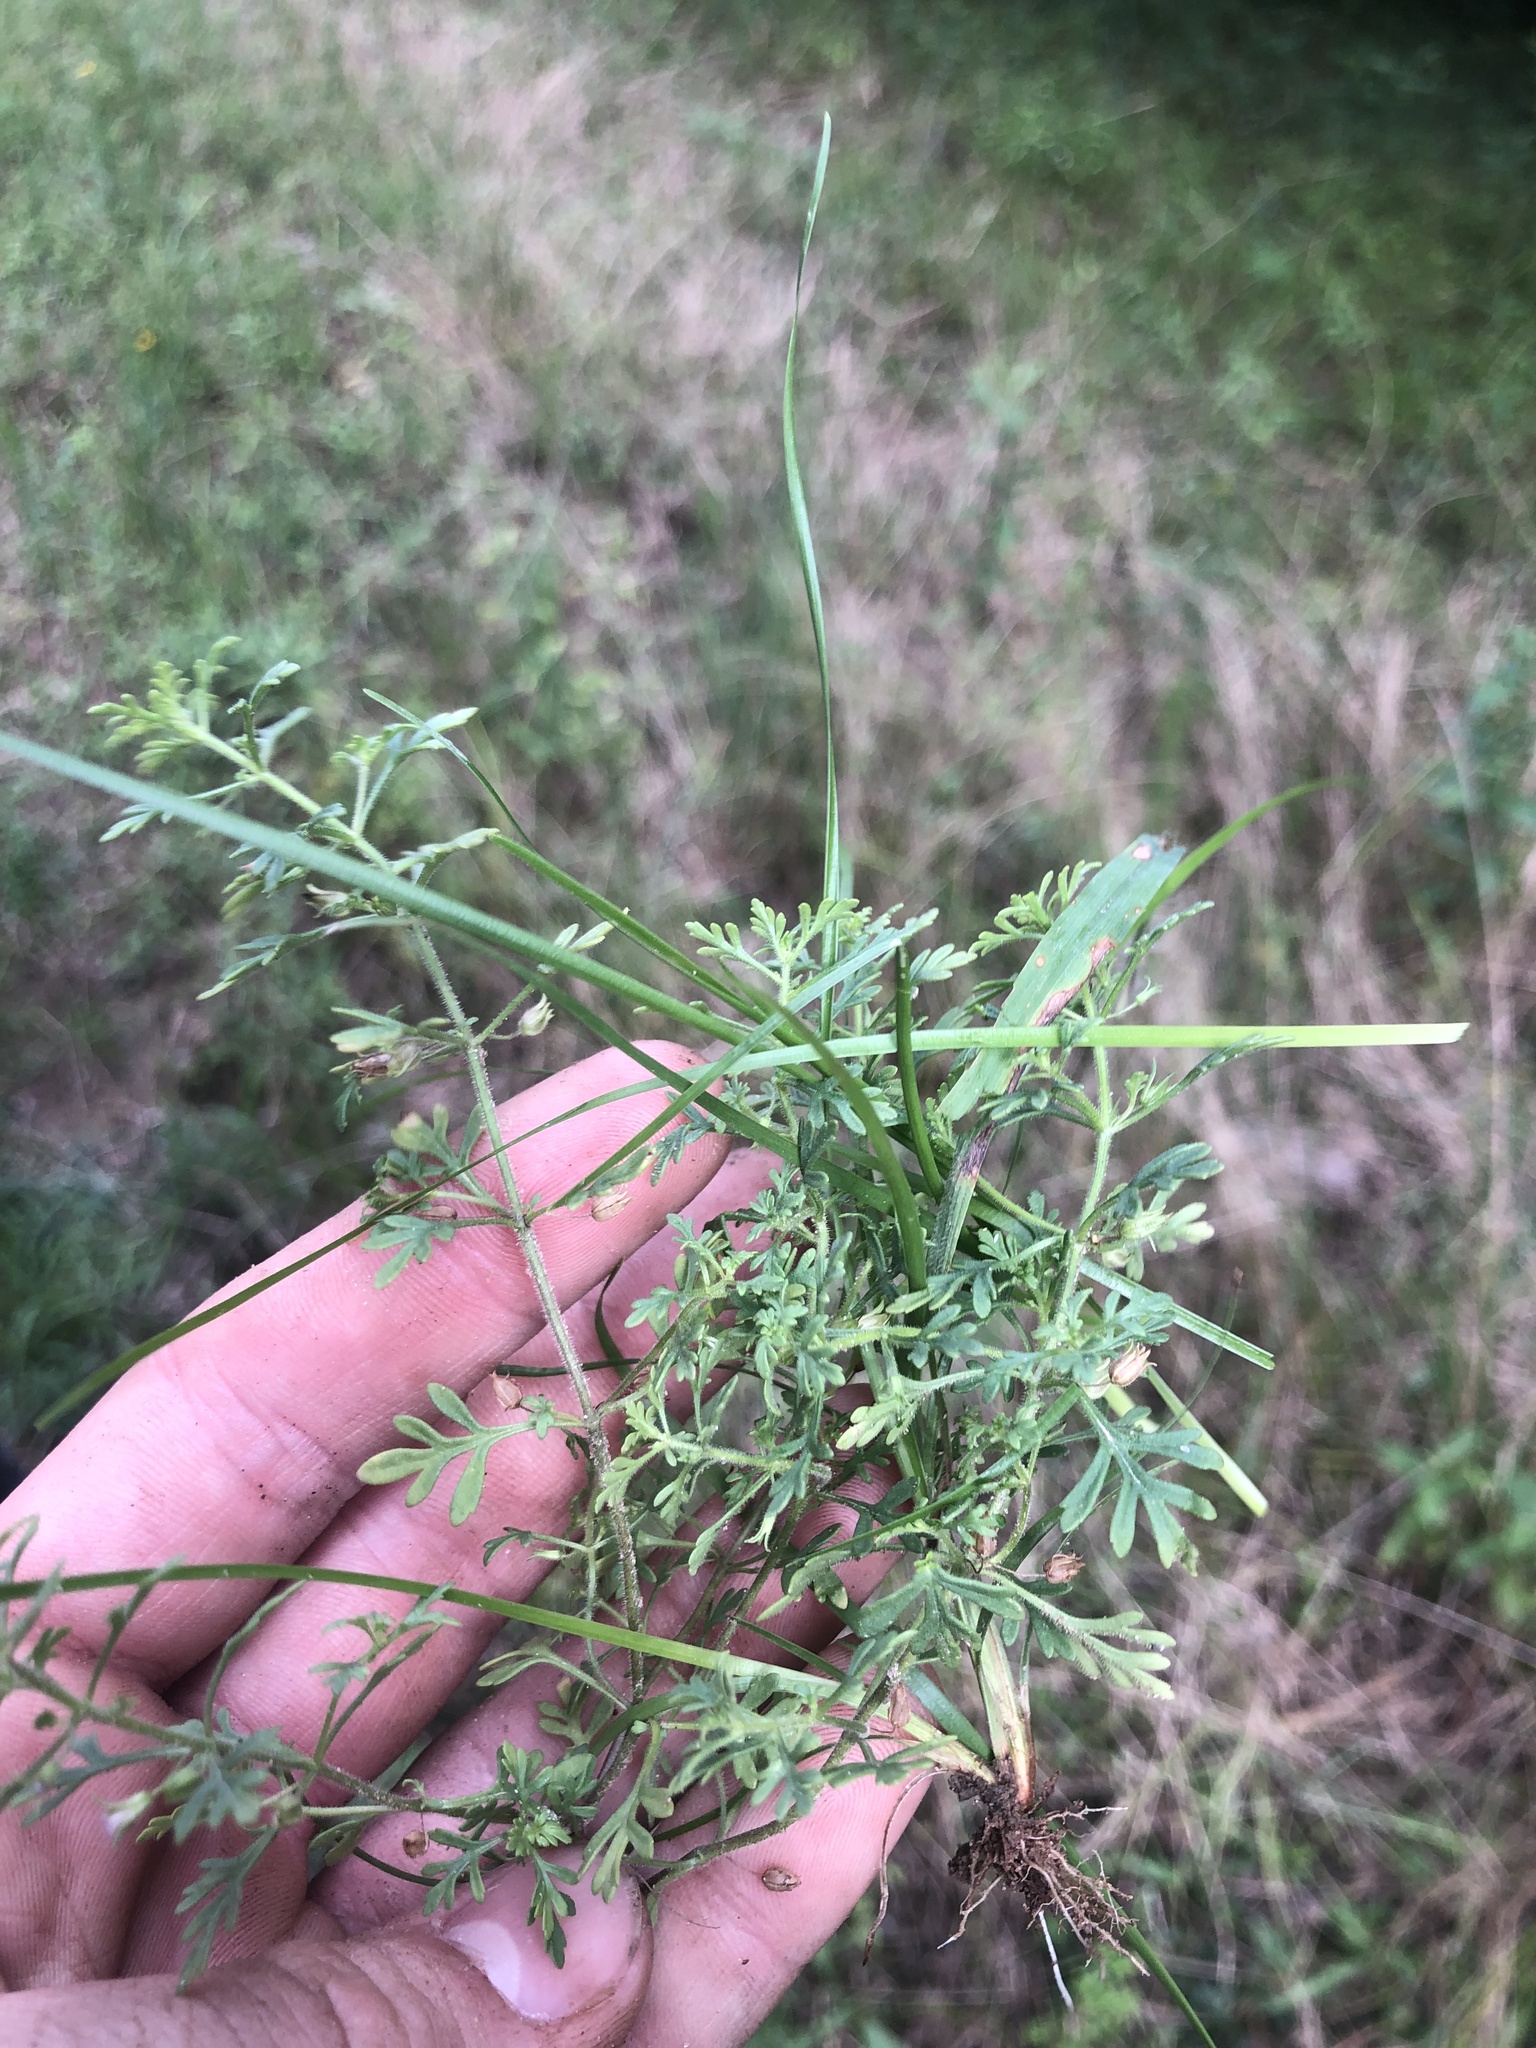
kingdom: Plantae
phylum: Tracheophyta
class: Magnoliopsida
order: Lamiales
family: Plantaginaceae
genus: Leucospora
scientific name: Leucospora multifida
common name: Narrow-leaf paleseed
